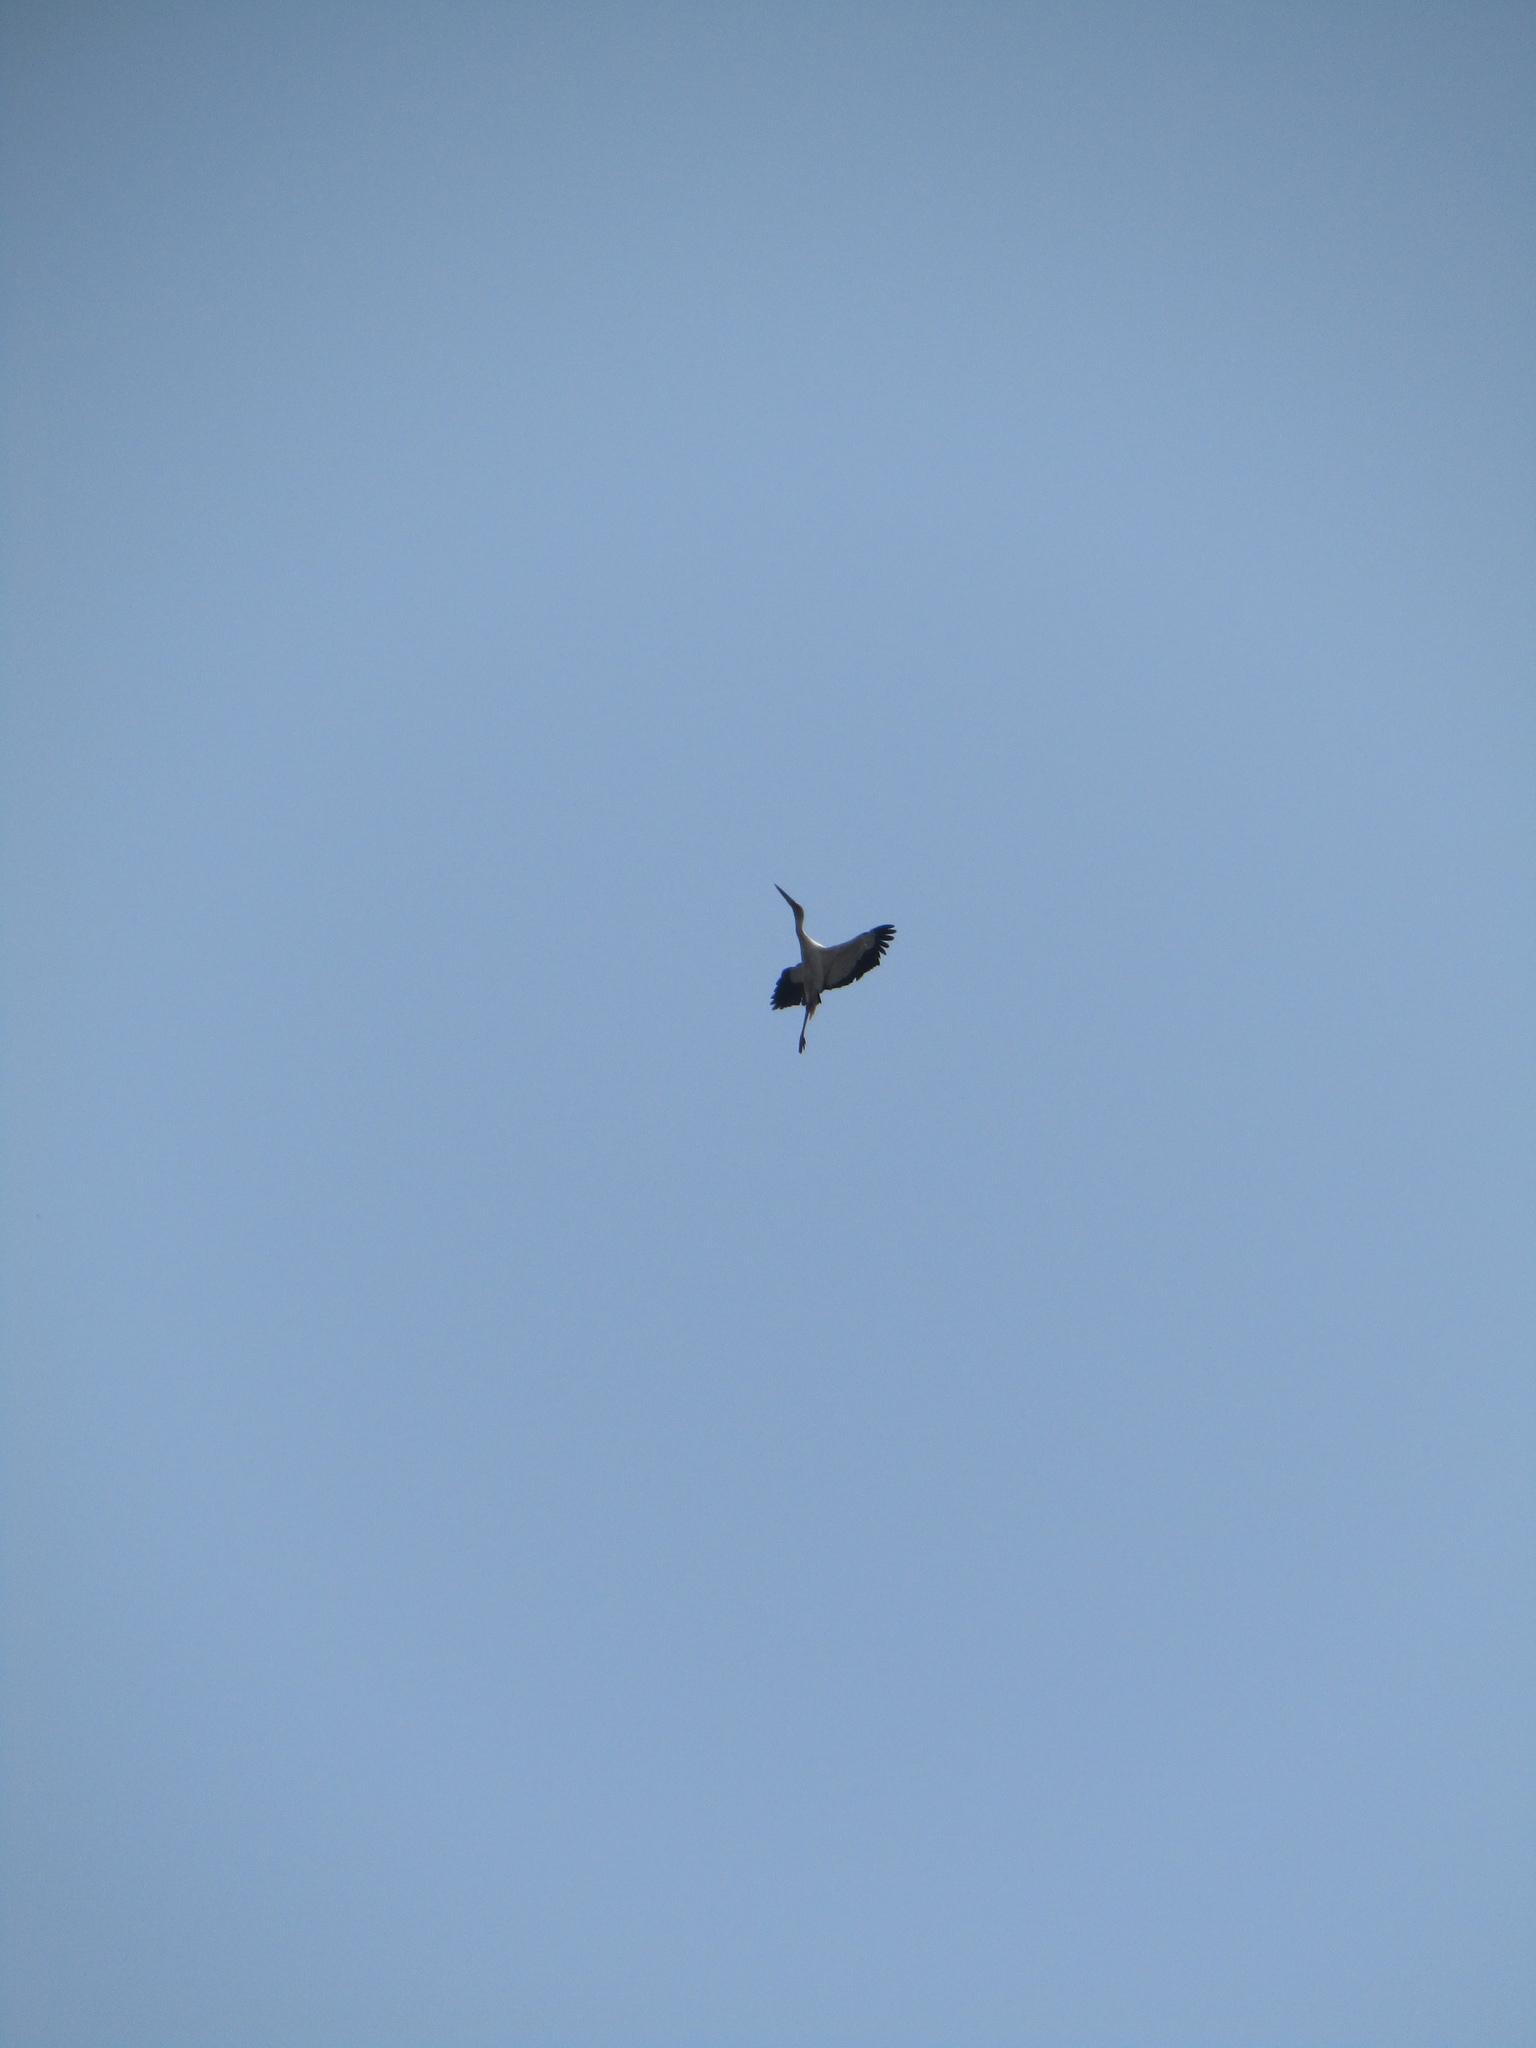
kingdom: Animalia
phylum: Chordata
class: Aves
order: Ciconiiformes
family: Ciconiidae
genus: Ciconia
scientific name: Ciconia maguari
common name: Maguari stork
